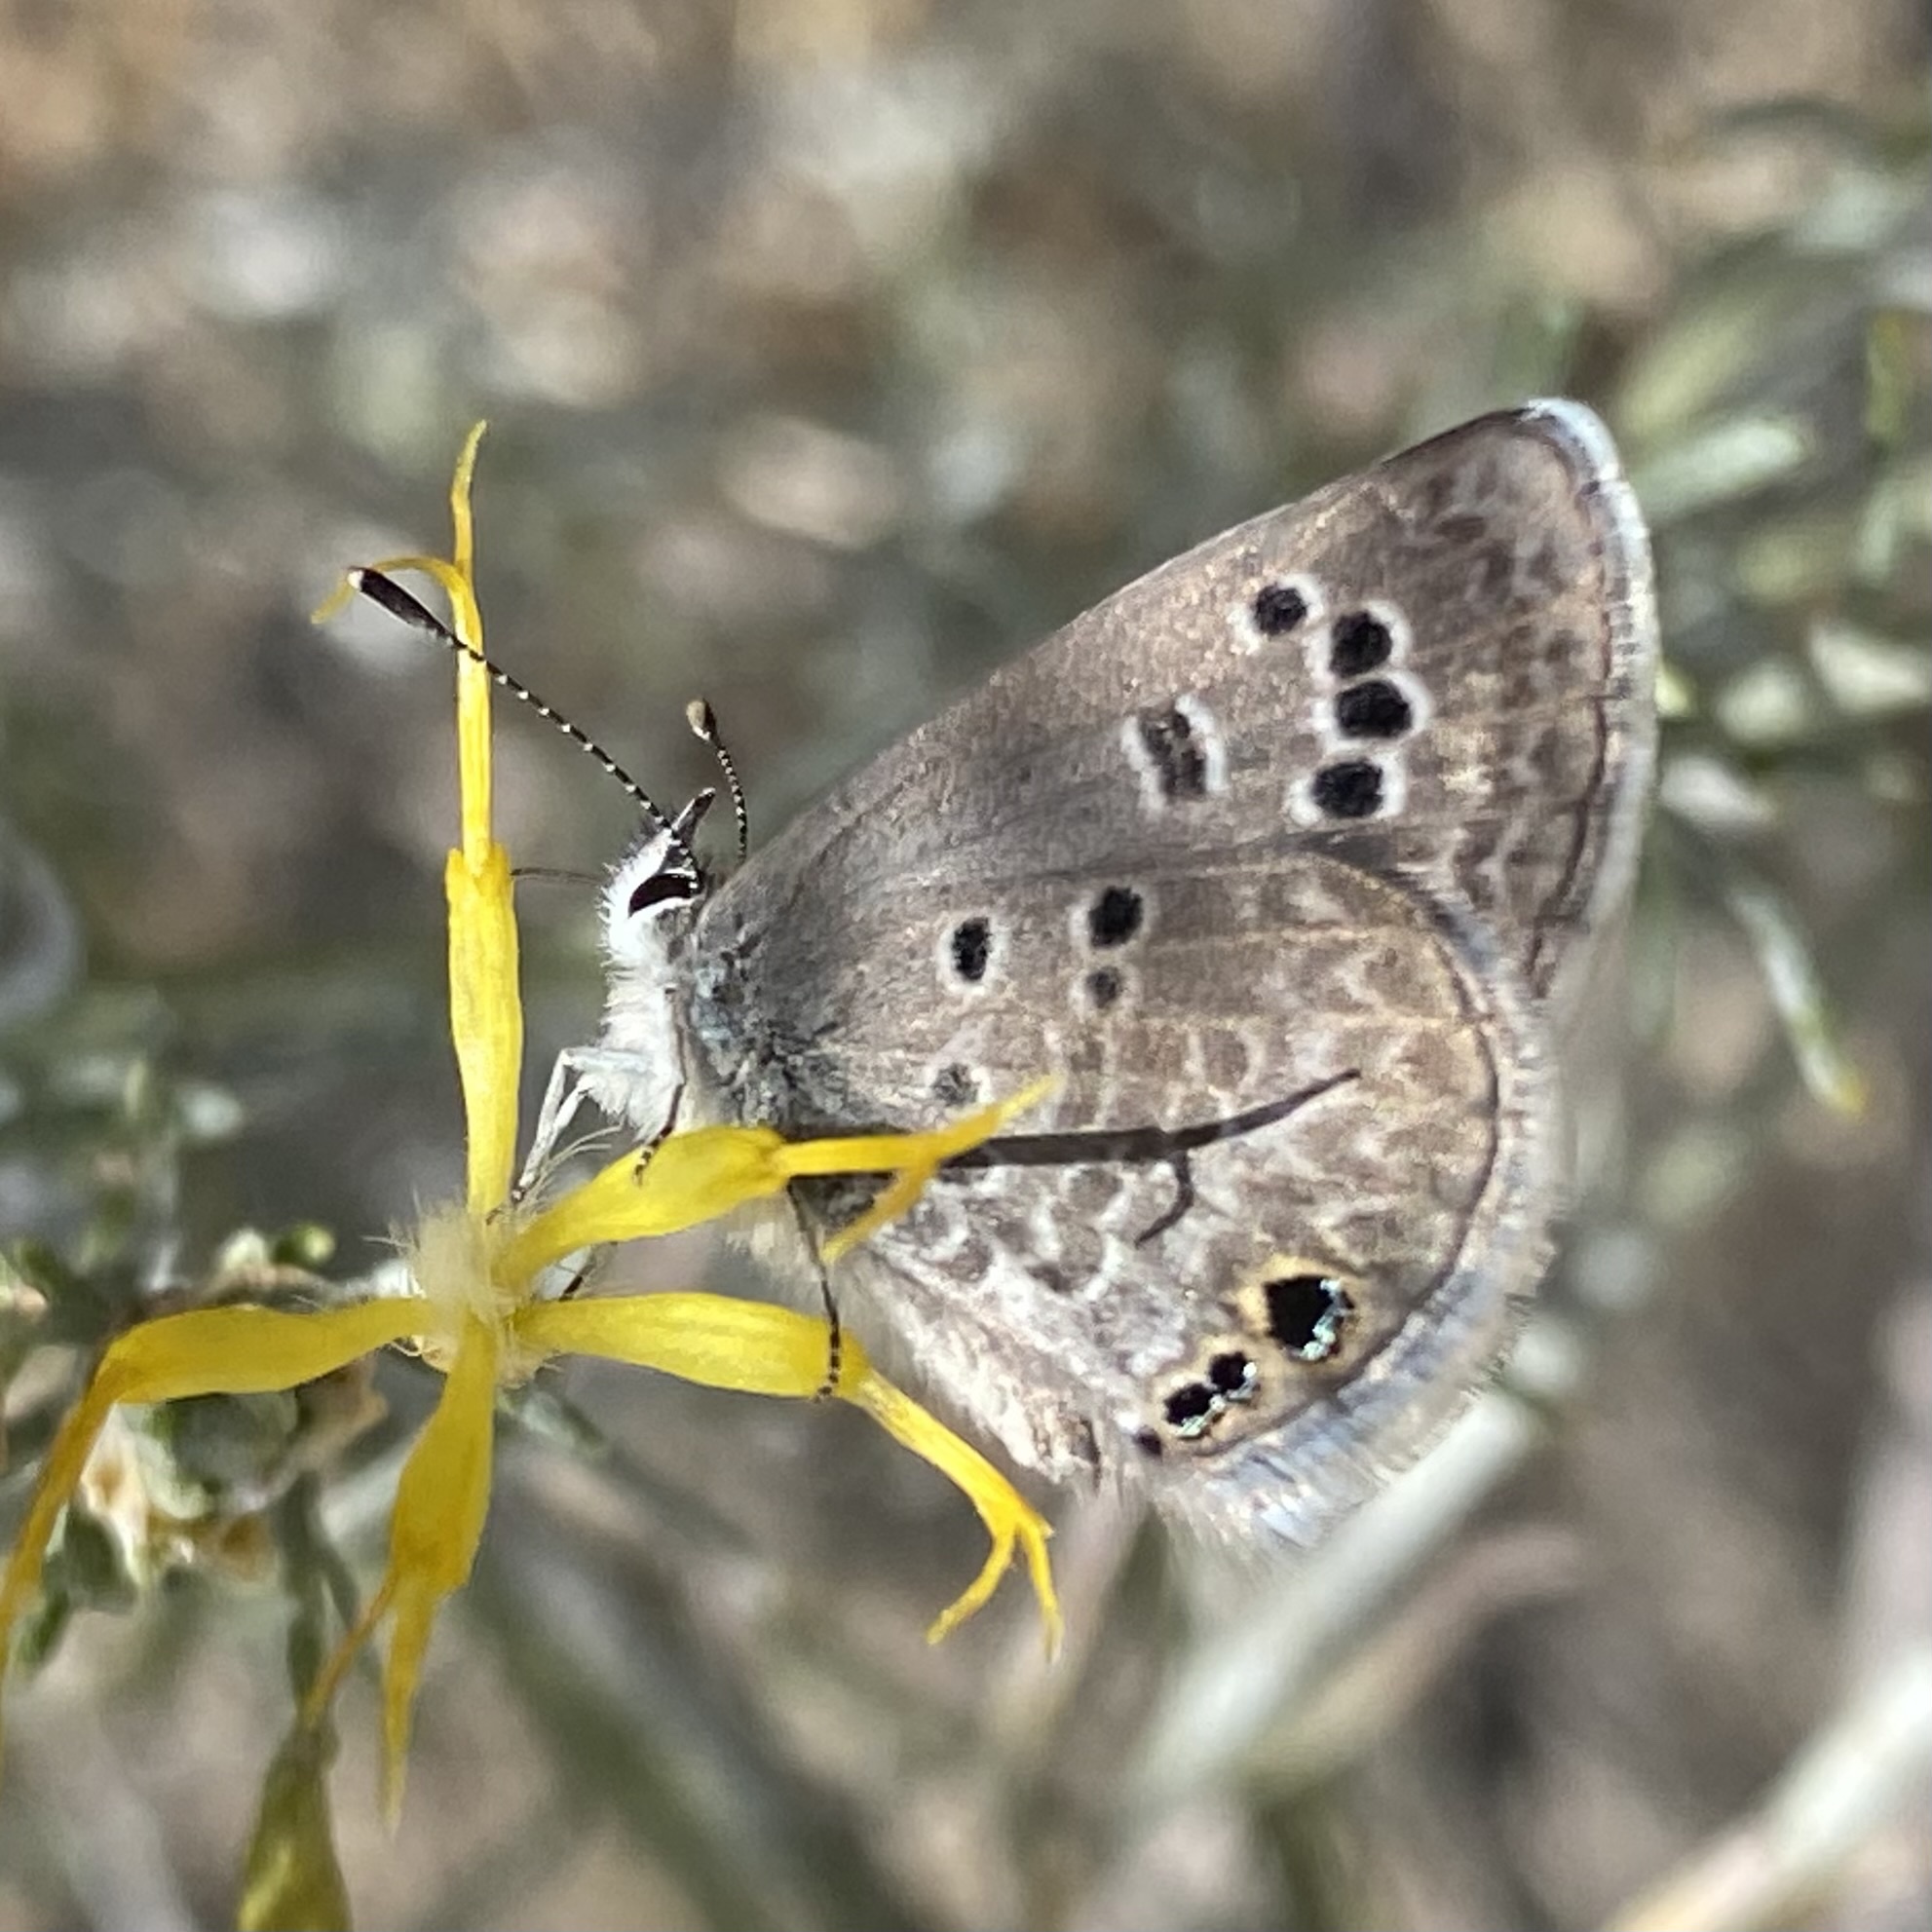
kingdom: Animalia
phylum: Arthropoda
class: Insecta
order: Lepidoptera
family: Lycaenidae
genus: Echinargus
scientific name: Echinargus isola
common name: Reakirt's blue
